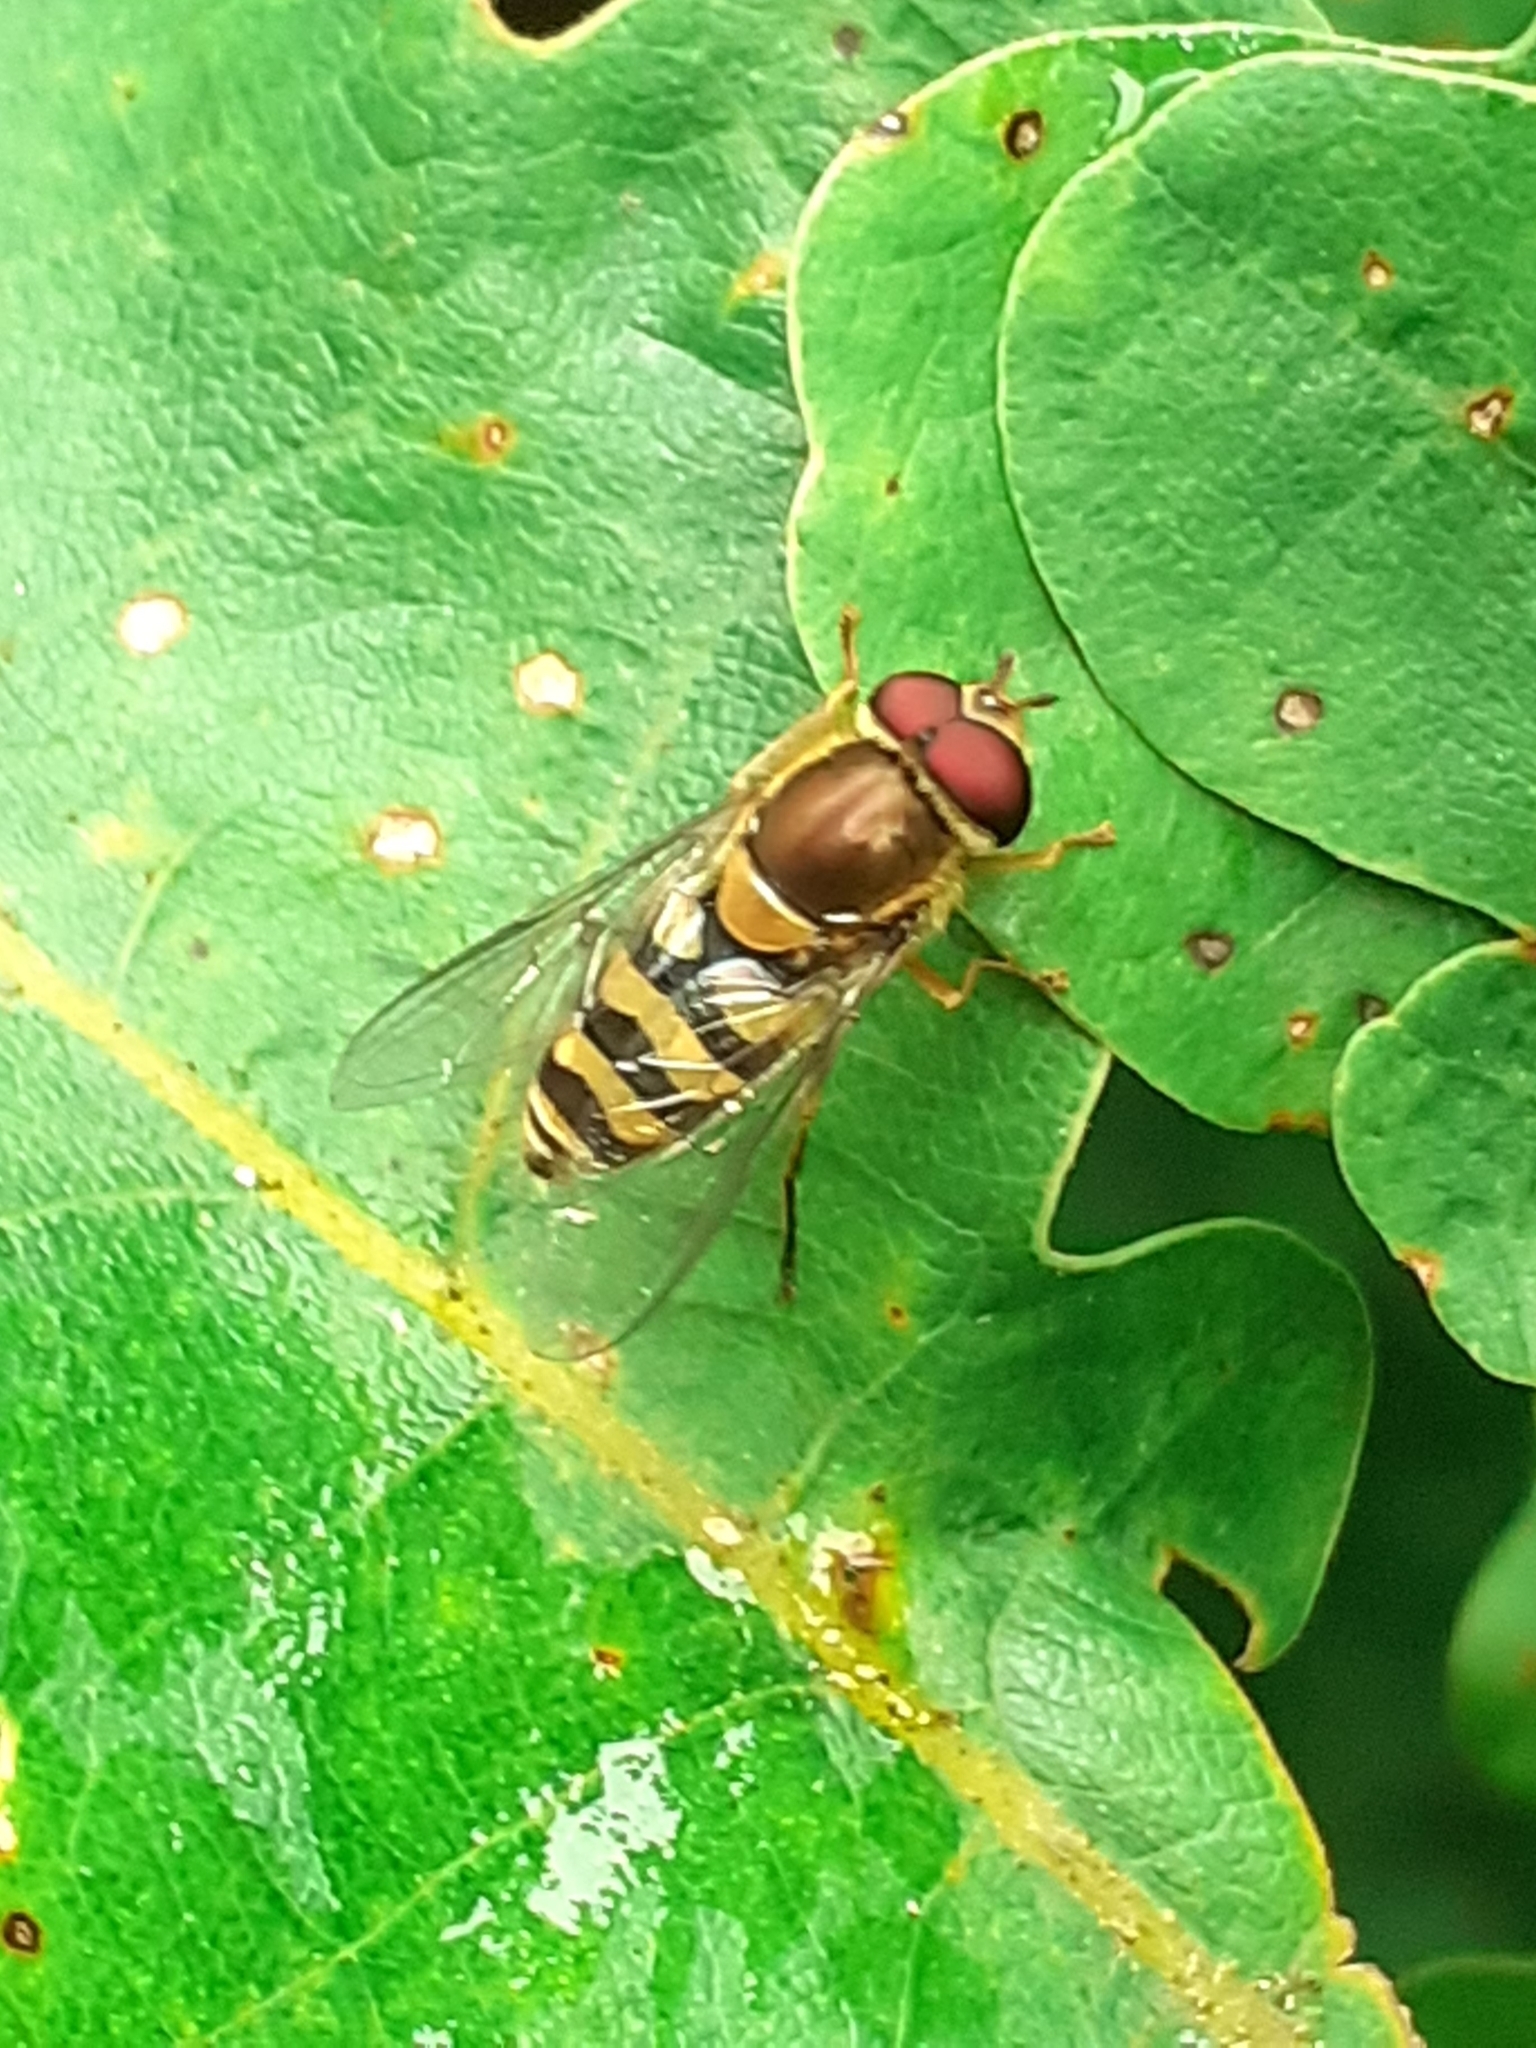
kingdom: Animalia
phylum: Arthropoda
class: Insecta
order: Diptera
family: Syrphidae
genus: Syrphus
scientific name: Syrphus
